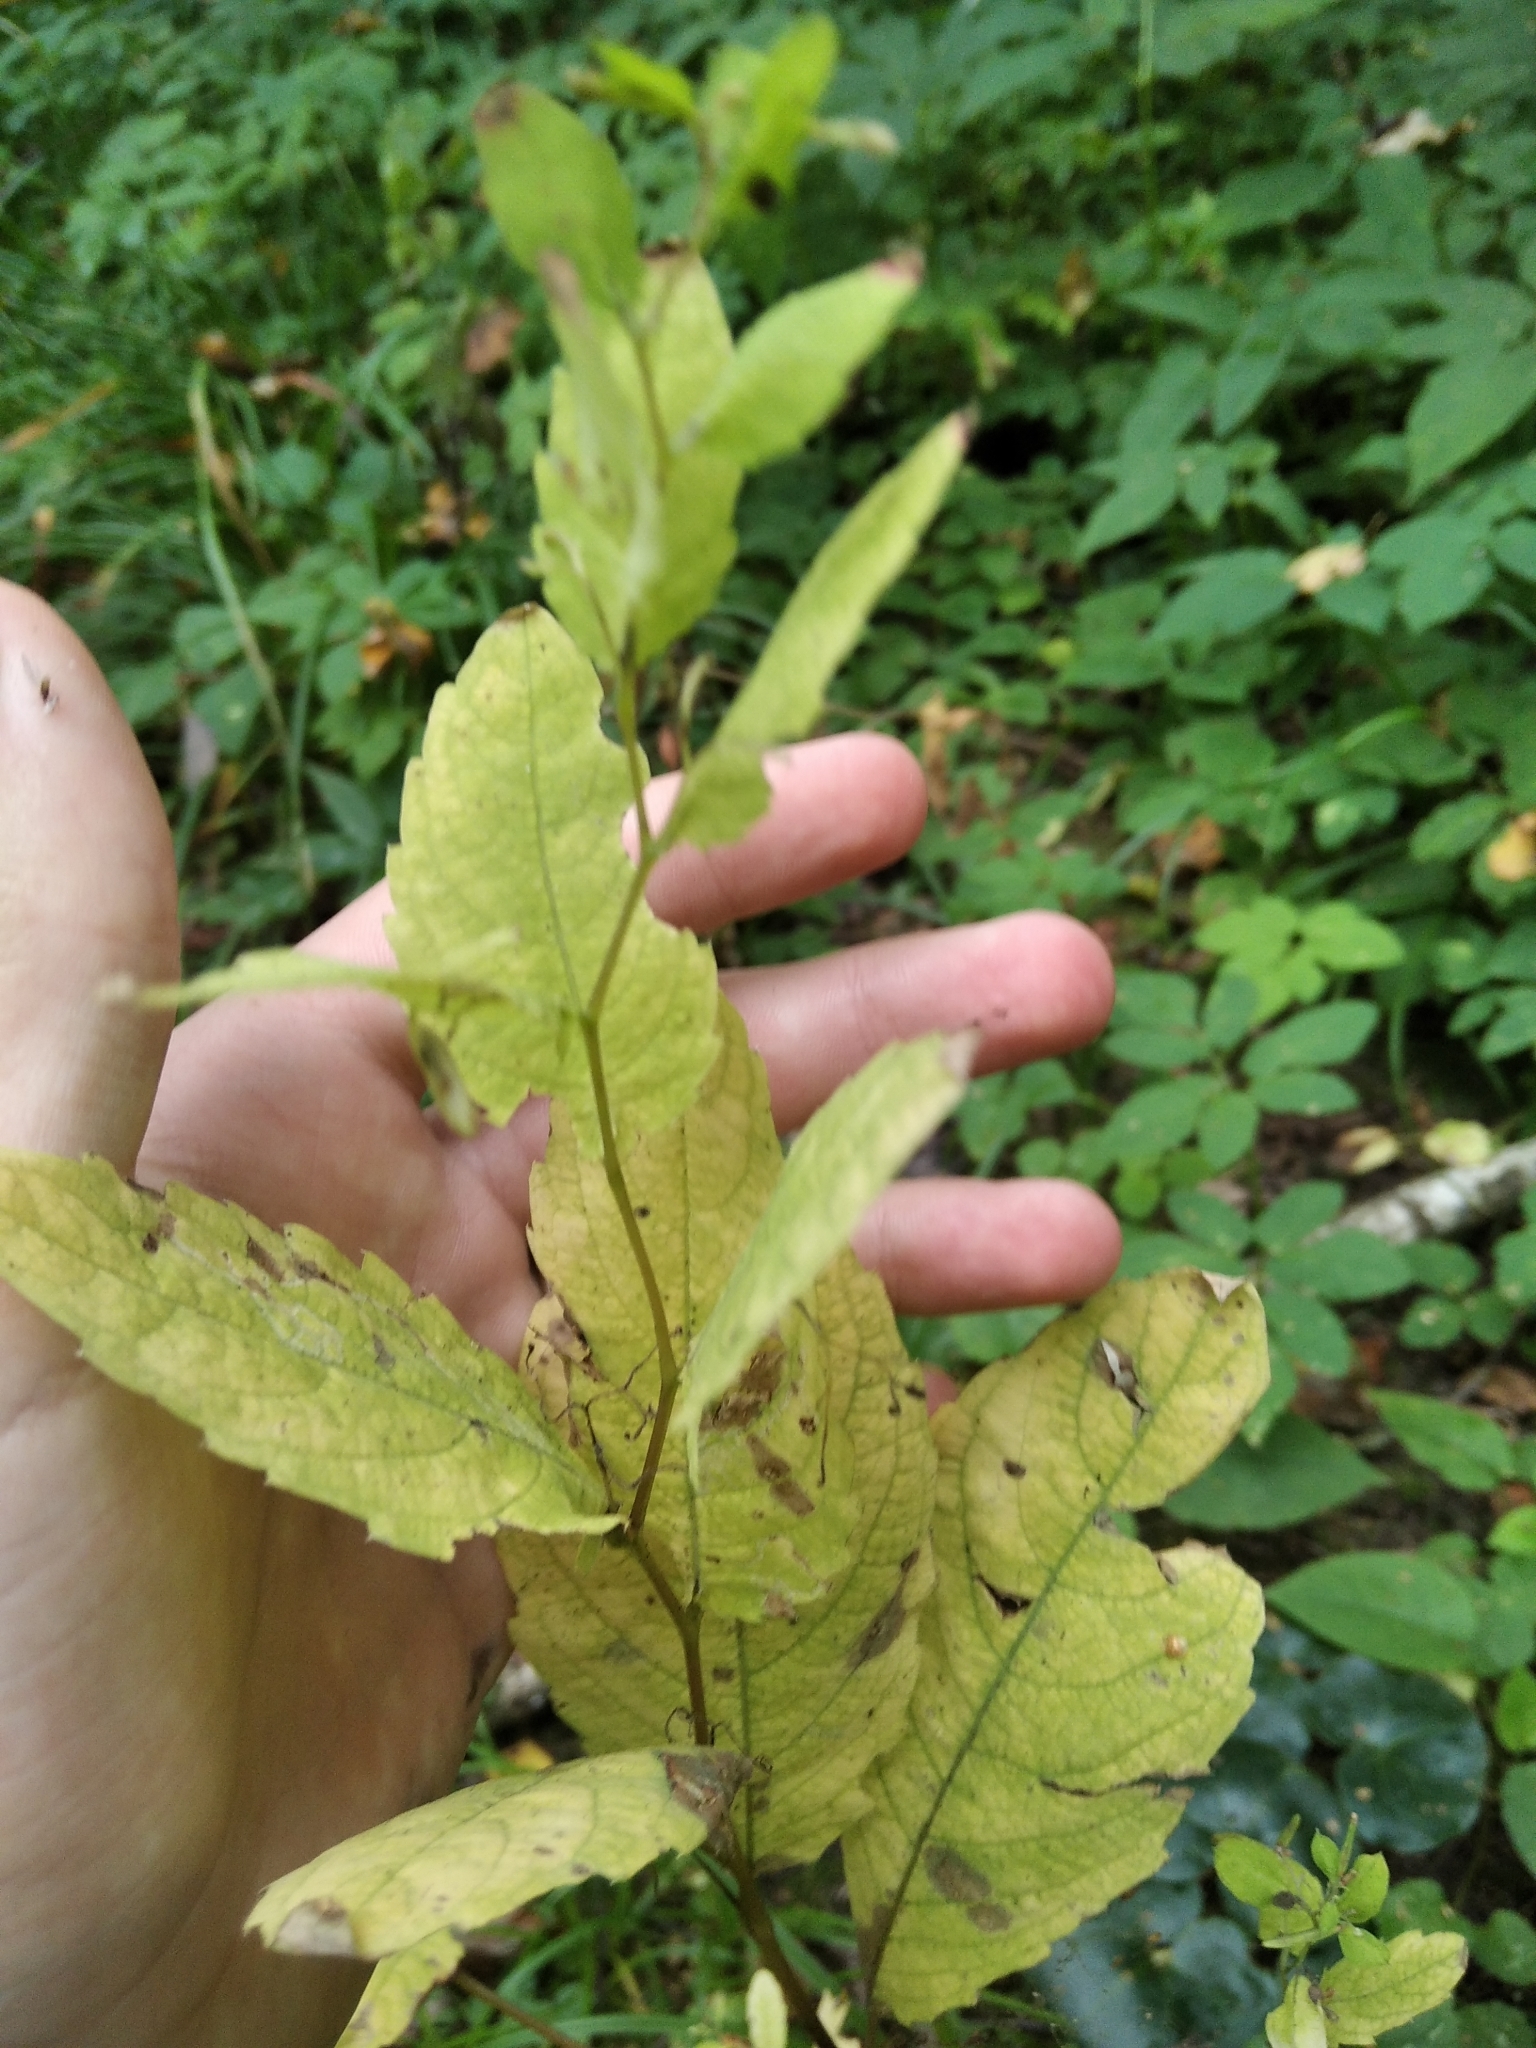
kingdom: Plantae
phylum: Tracheophyta
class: Magnoliopsida
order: Ericales
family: Balsaminaceae
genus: Impatiens
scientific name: Impatiens noli-tangere
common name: Touch-me-not balsam
